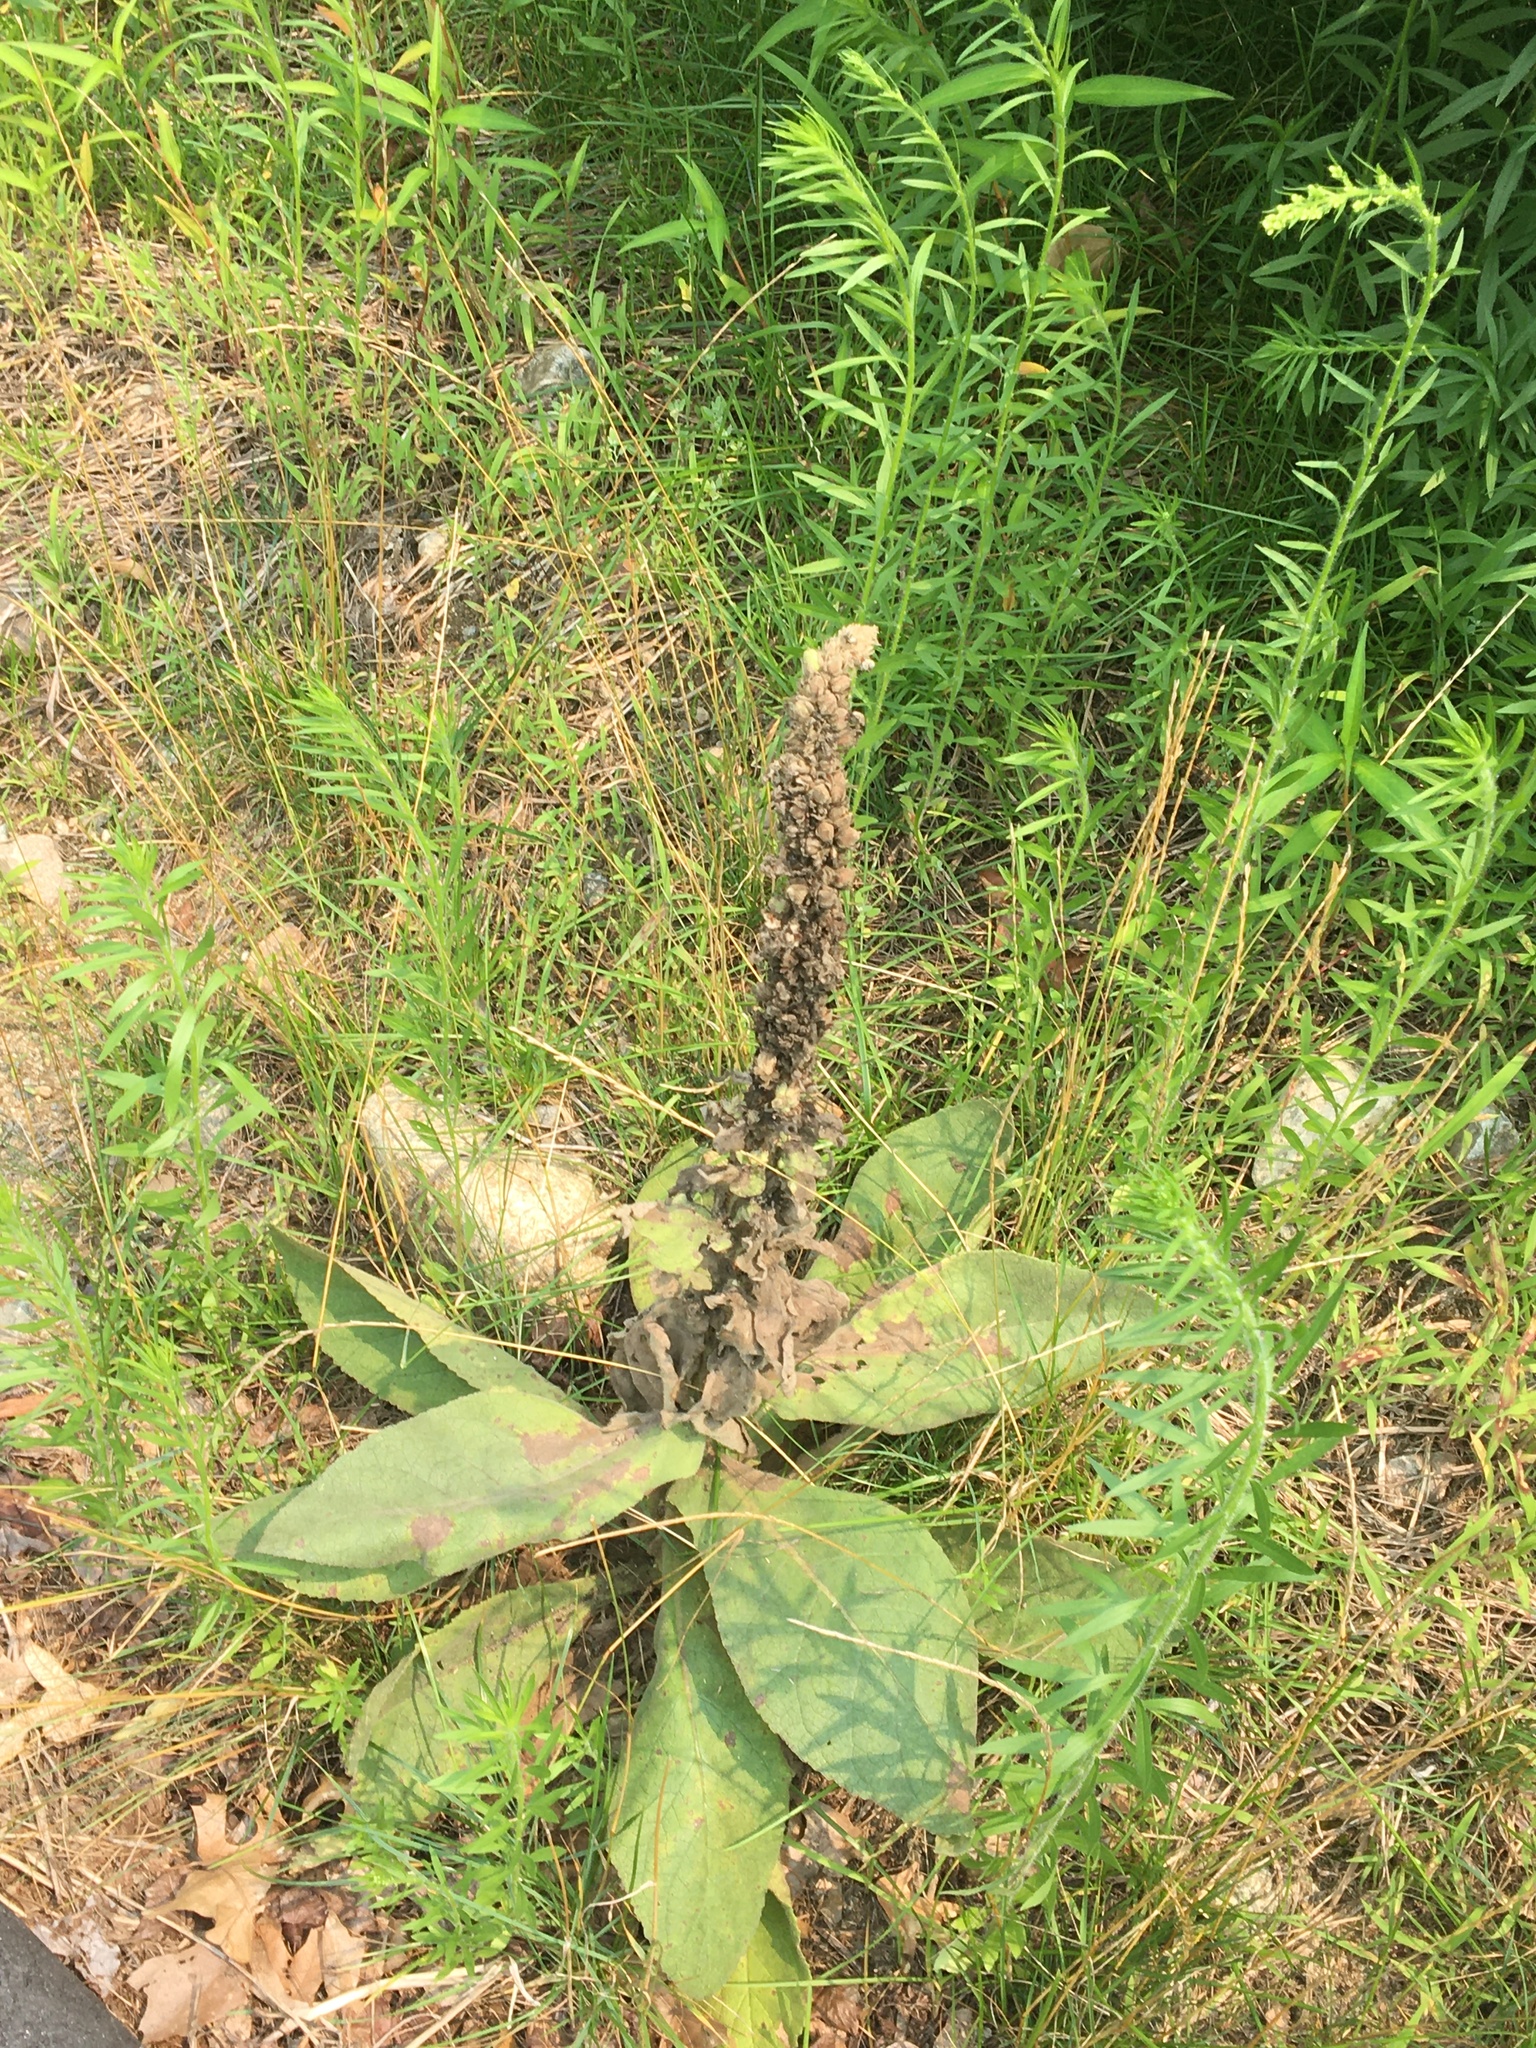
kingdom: Plantae
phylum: Tracheophyta
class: Magnoliopsida
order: Lamiales
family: Scrophulariaceae
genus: Verbascum
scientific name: Verbascum thapsus
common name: Common mullein
